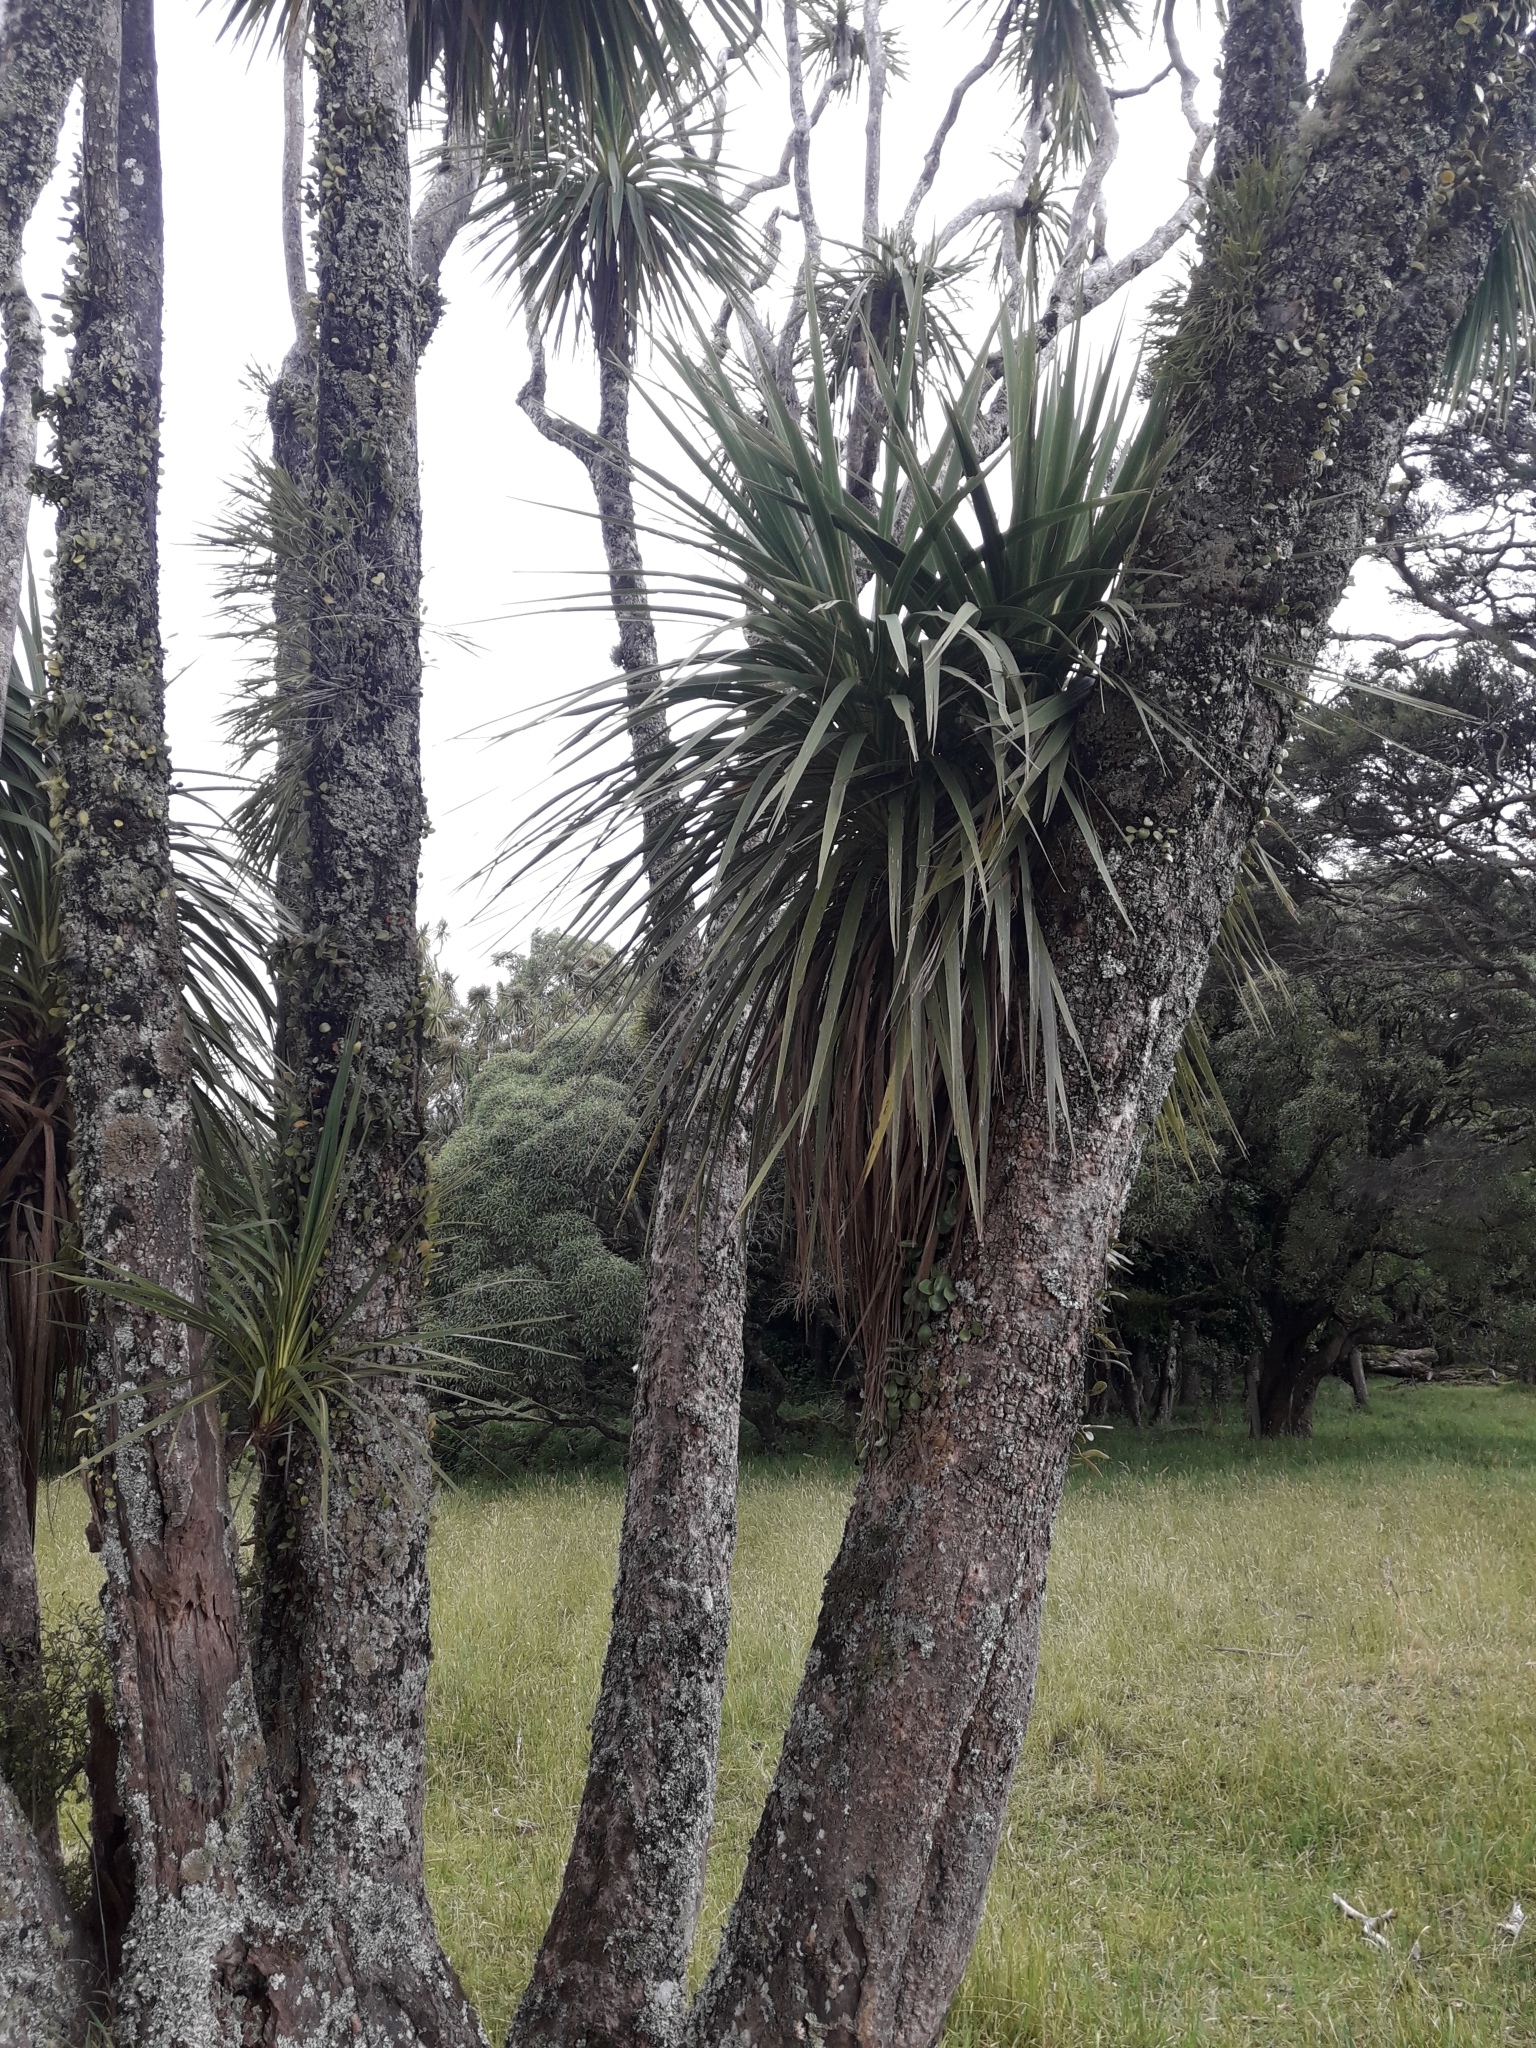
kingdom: Plantae
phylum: Tracheophyta
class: Liliopsida
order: Asparagales
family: Asparagaceae
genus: Cordyline
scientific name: Cordyline australis
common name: Cabbage-palm
